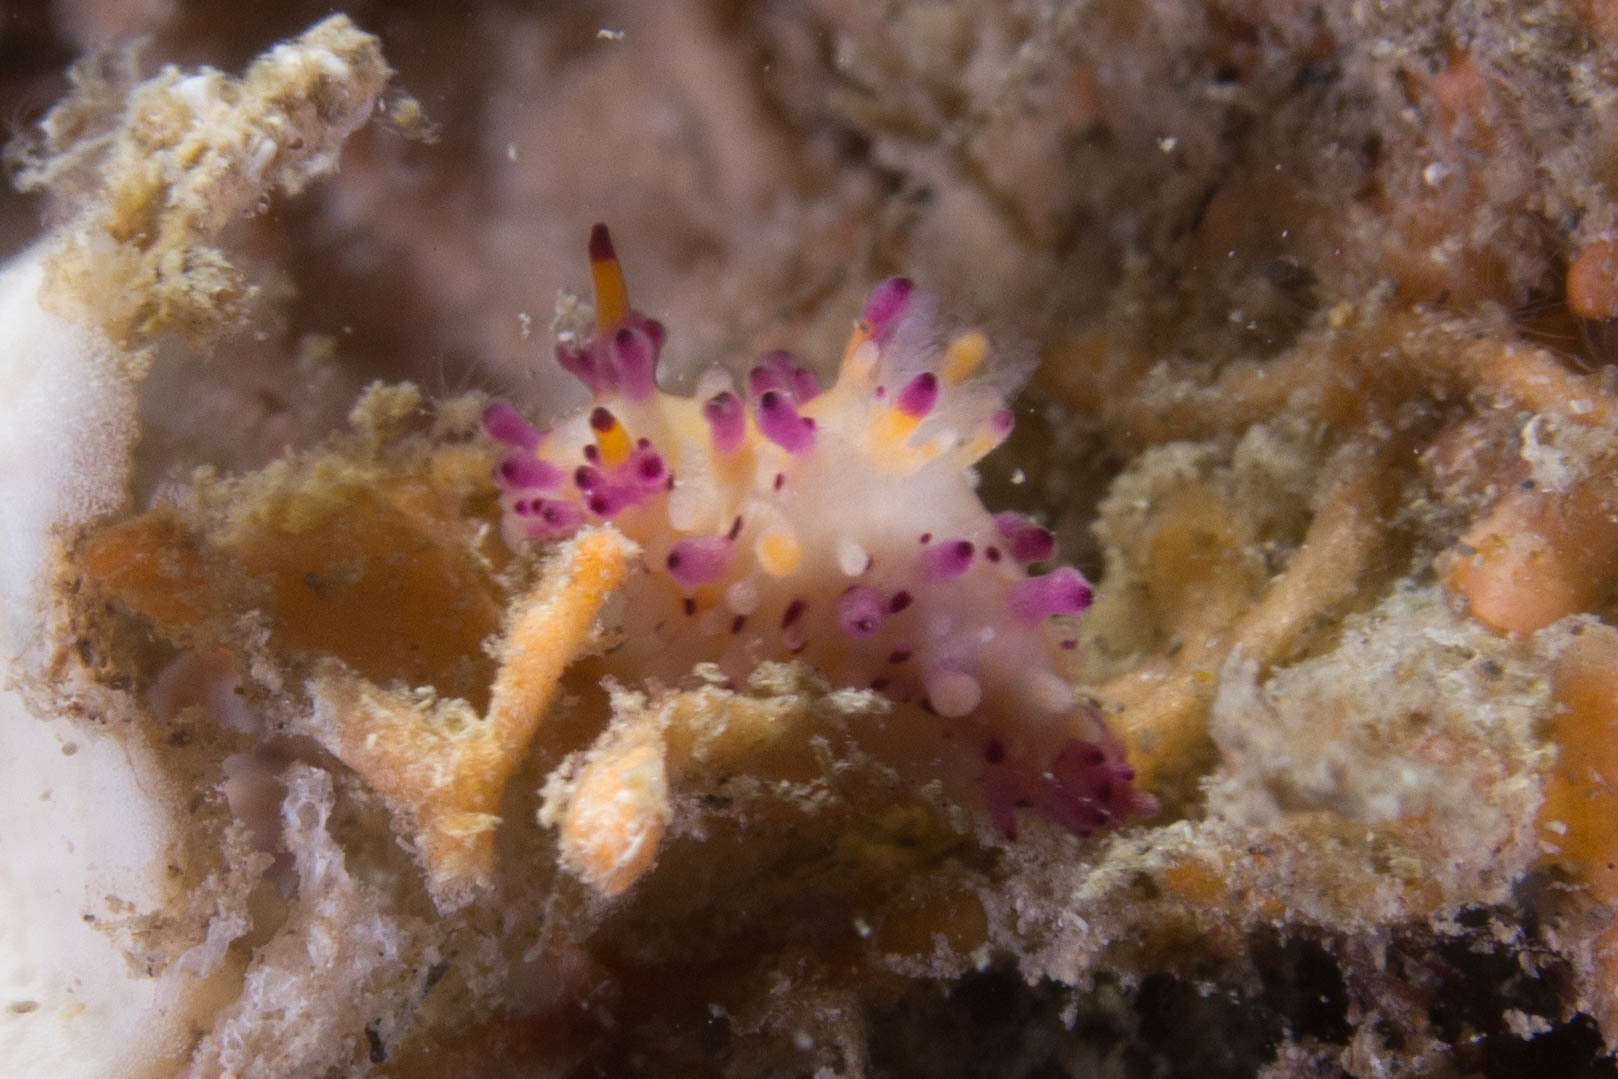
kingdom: Animalia
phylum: Mollusca
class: Gastropoda
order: Nudibranchia
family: Aegiridae
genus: Aegires
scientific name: Aegires villosus
